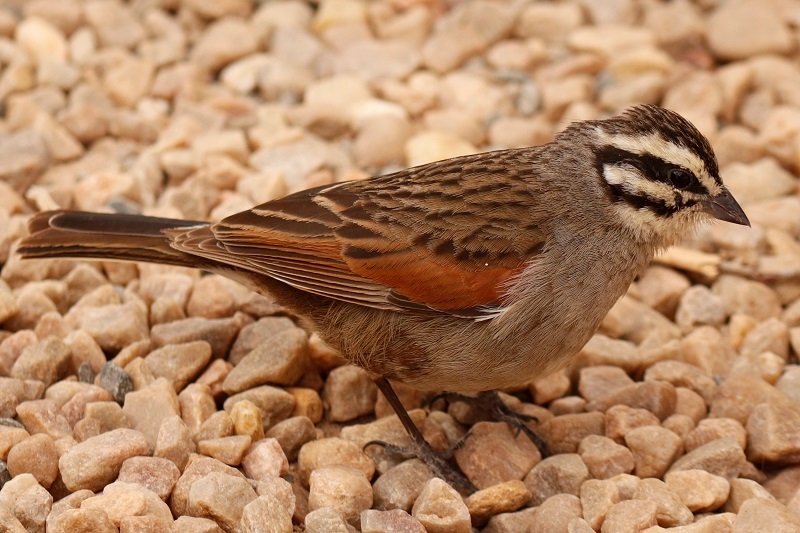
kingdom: Animalia
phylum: Chordata
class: Aves
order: Passeriformes
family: Emberizidae
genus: Emberiza
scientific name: Emberiza capensis
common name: Cape bunting
